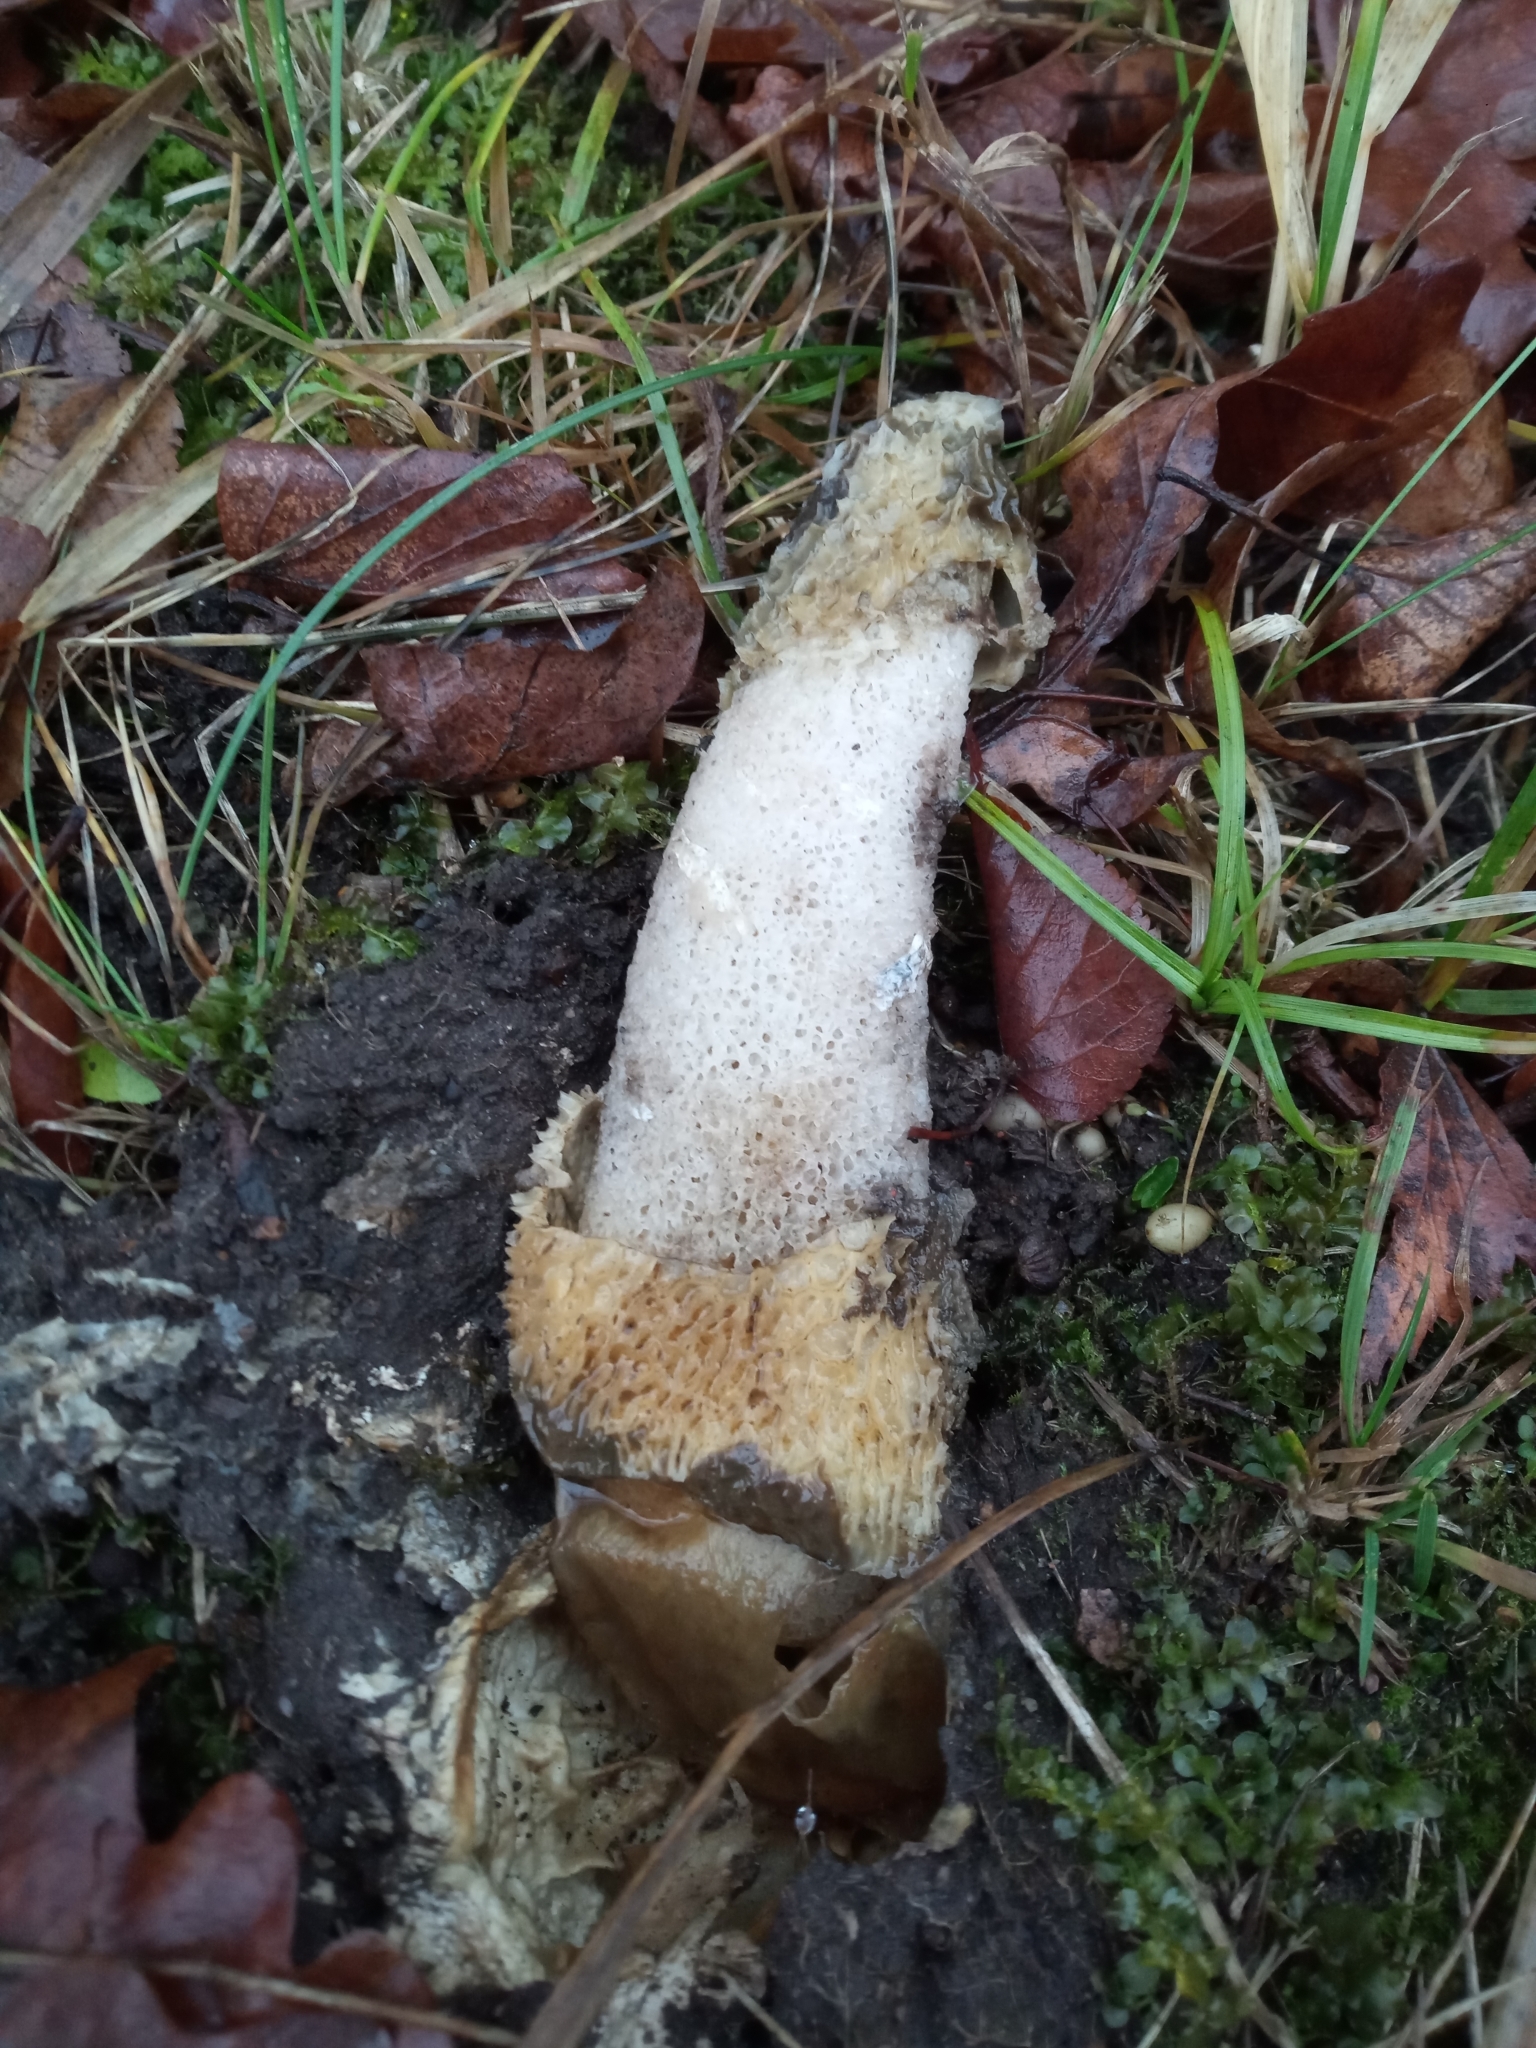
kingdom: Fungi
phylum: Basidiomycota
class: Agaricomycetes
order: Phallales
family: Phallaceae
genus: Phallus
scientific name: Phallus impudicus
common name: Common stinkhorn
